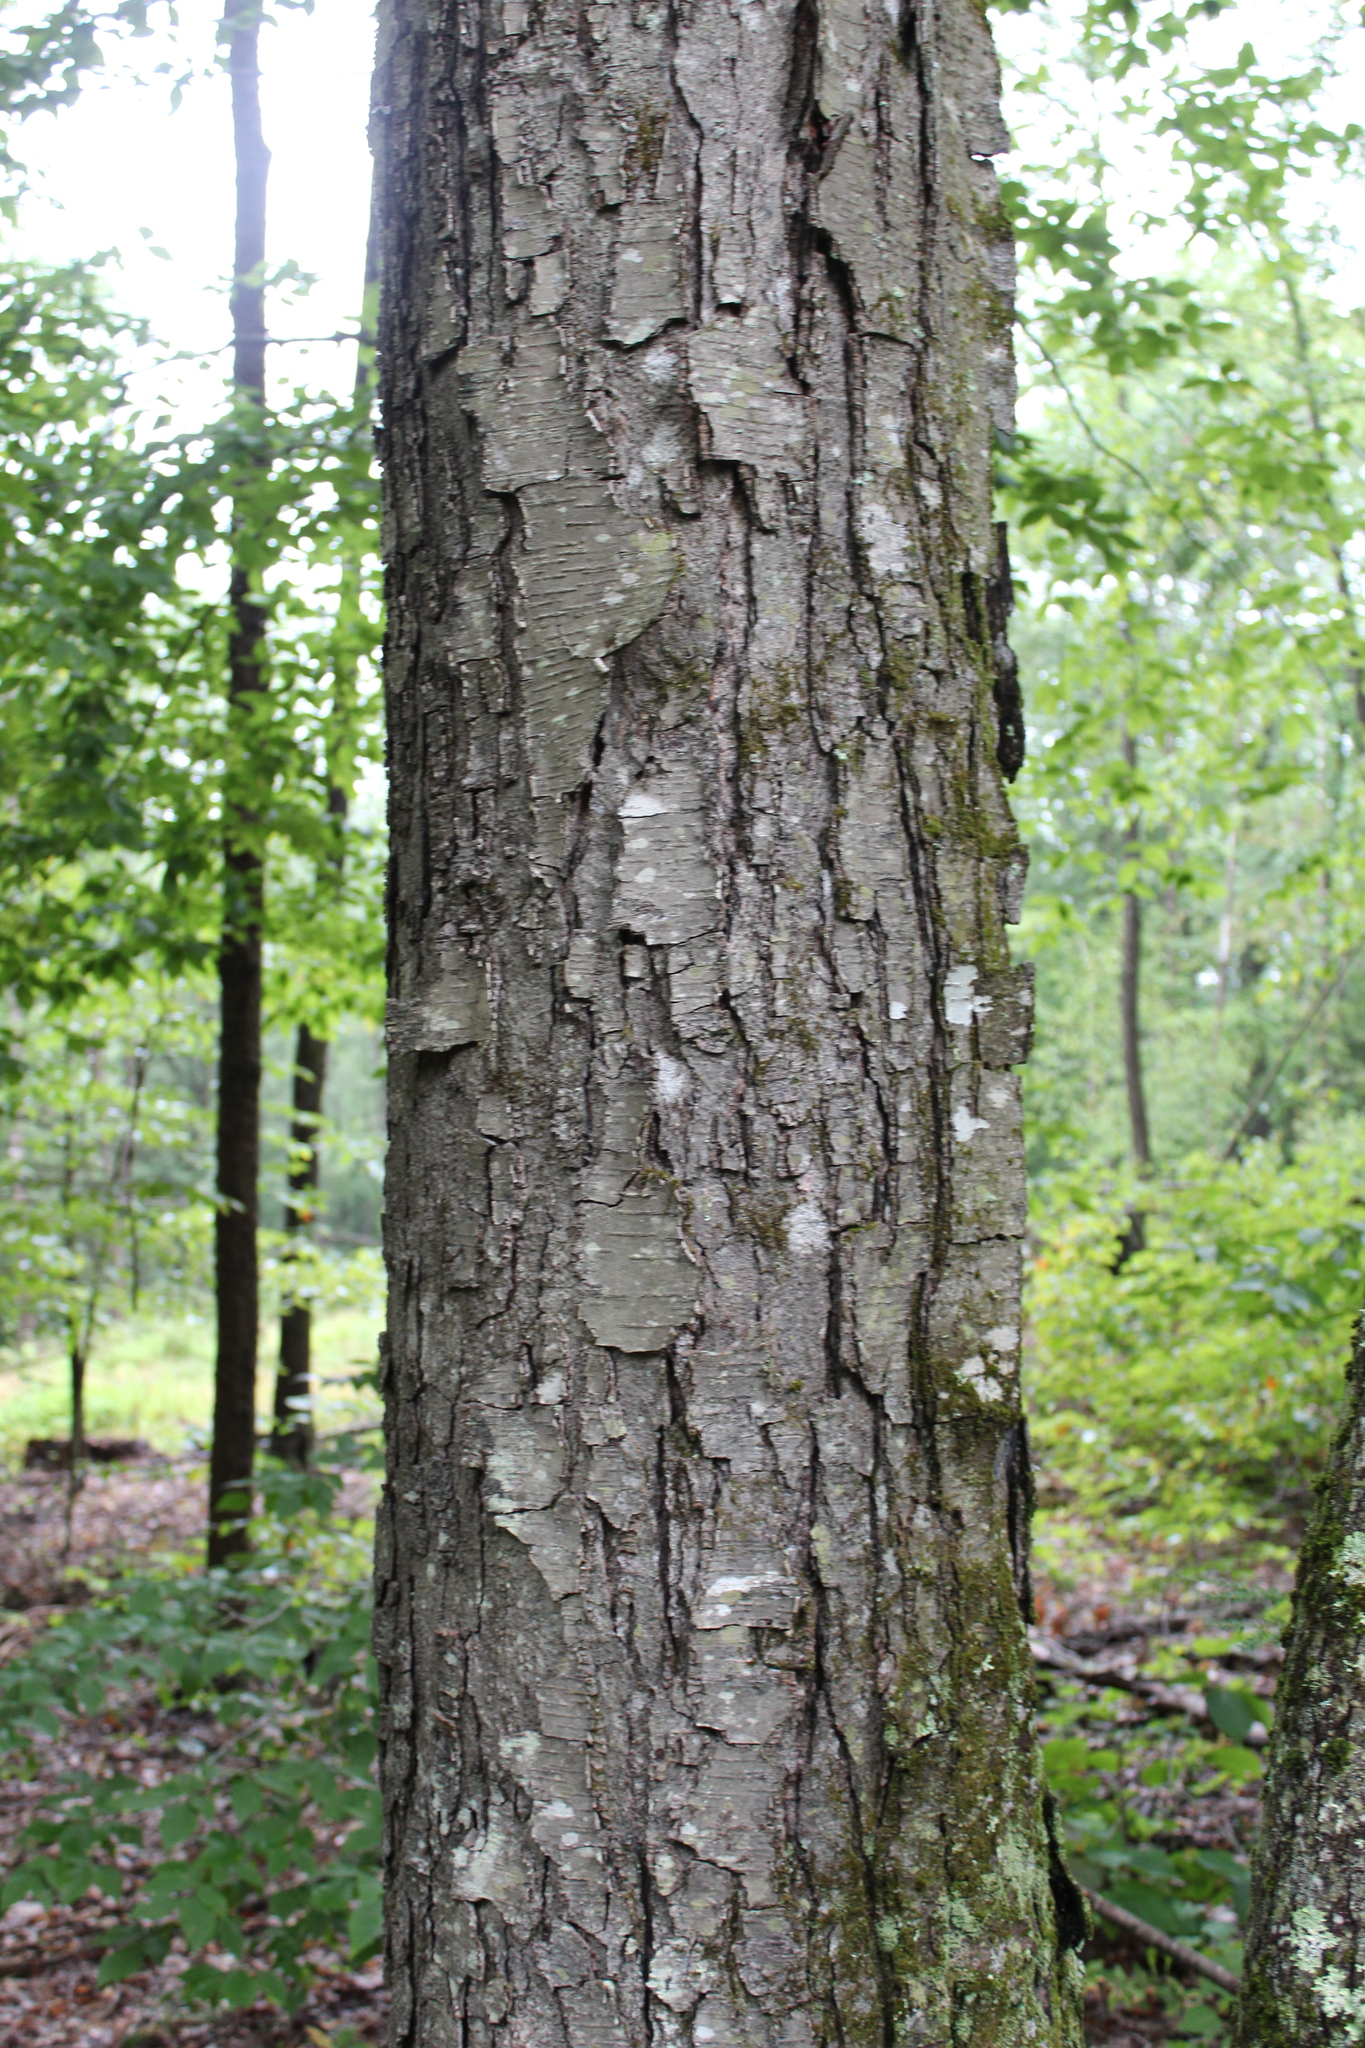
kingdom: Plantae
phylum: Tracheophyta
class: Magnoliopsida
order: Fagales
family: Betulaceae
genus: Betula
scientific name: Betula lenta
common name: Black birch
